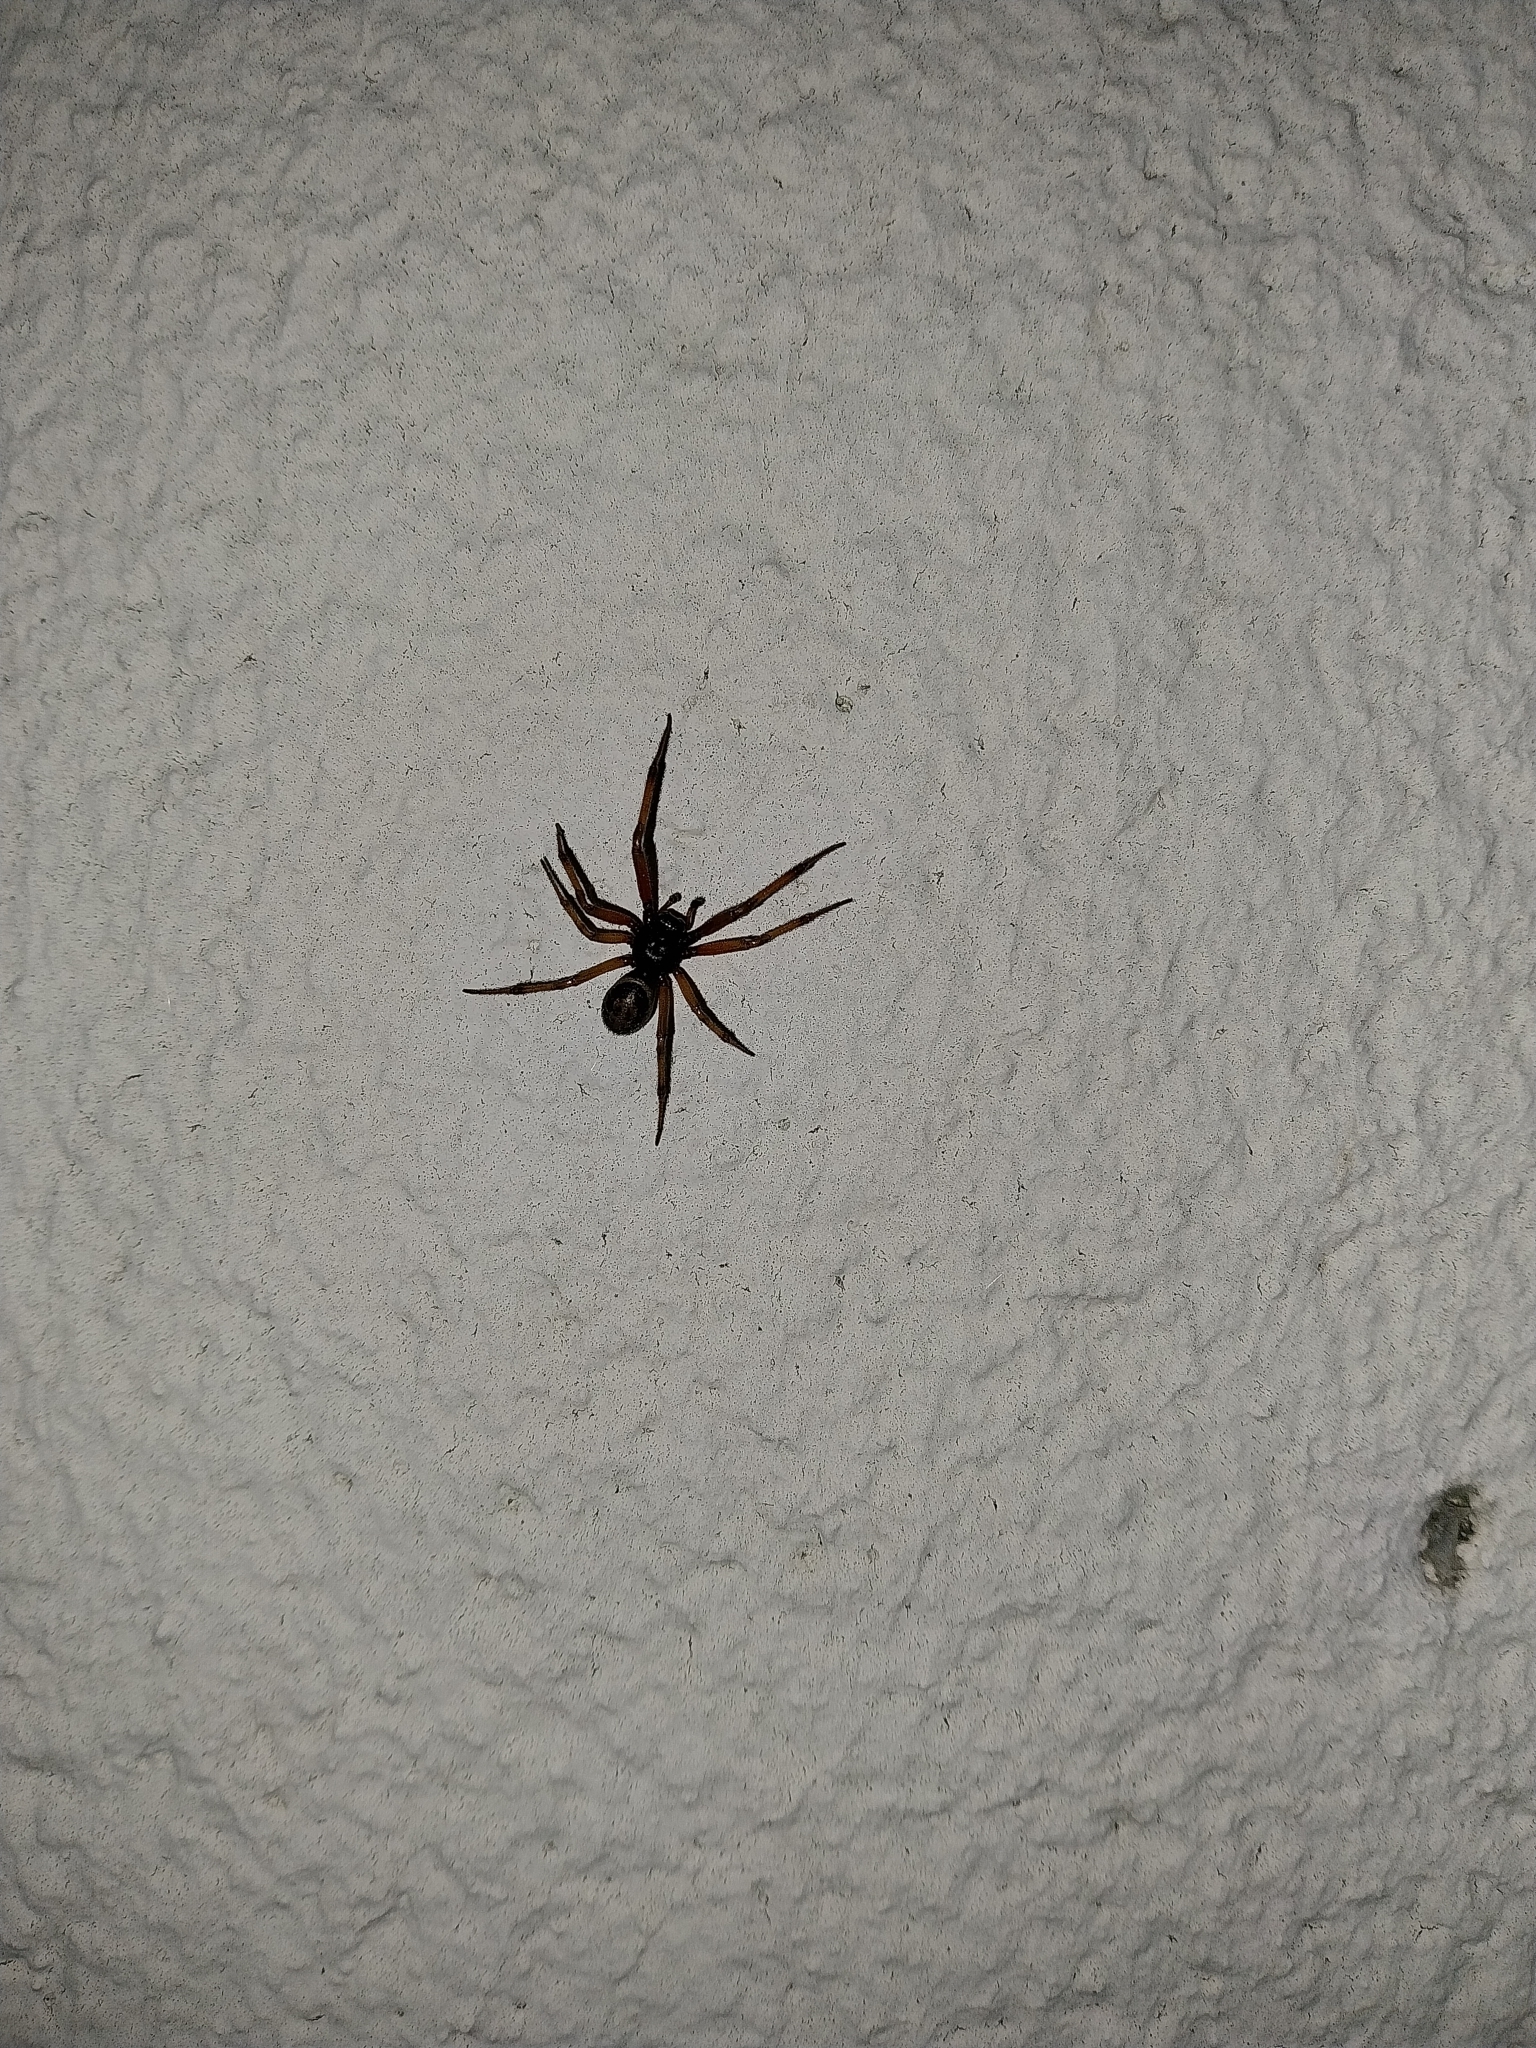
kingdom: Animalia
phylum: Arthropoda
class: Arachnida
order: Araneae
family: Theridiidae
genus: Steatoda
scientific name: Steatoda nobilis
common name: Cobweb weaver
